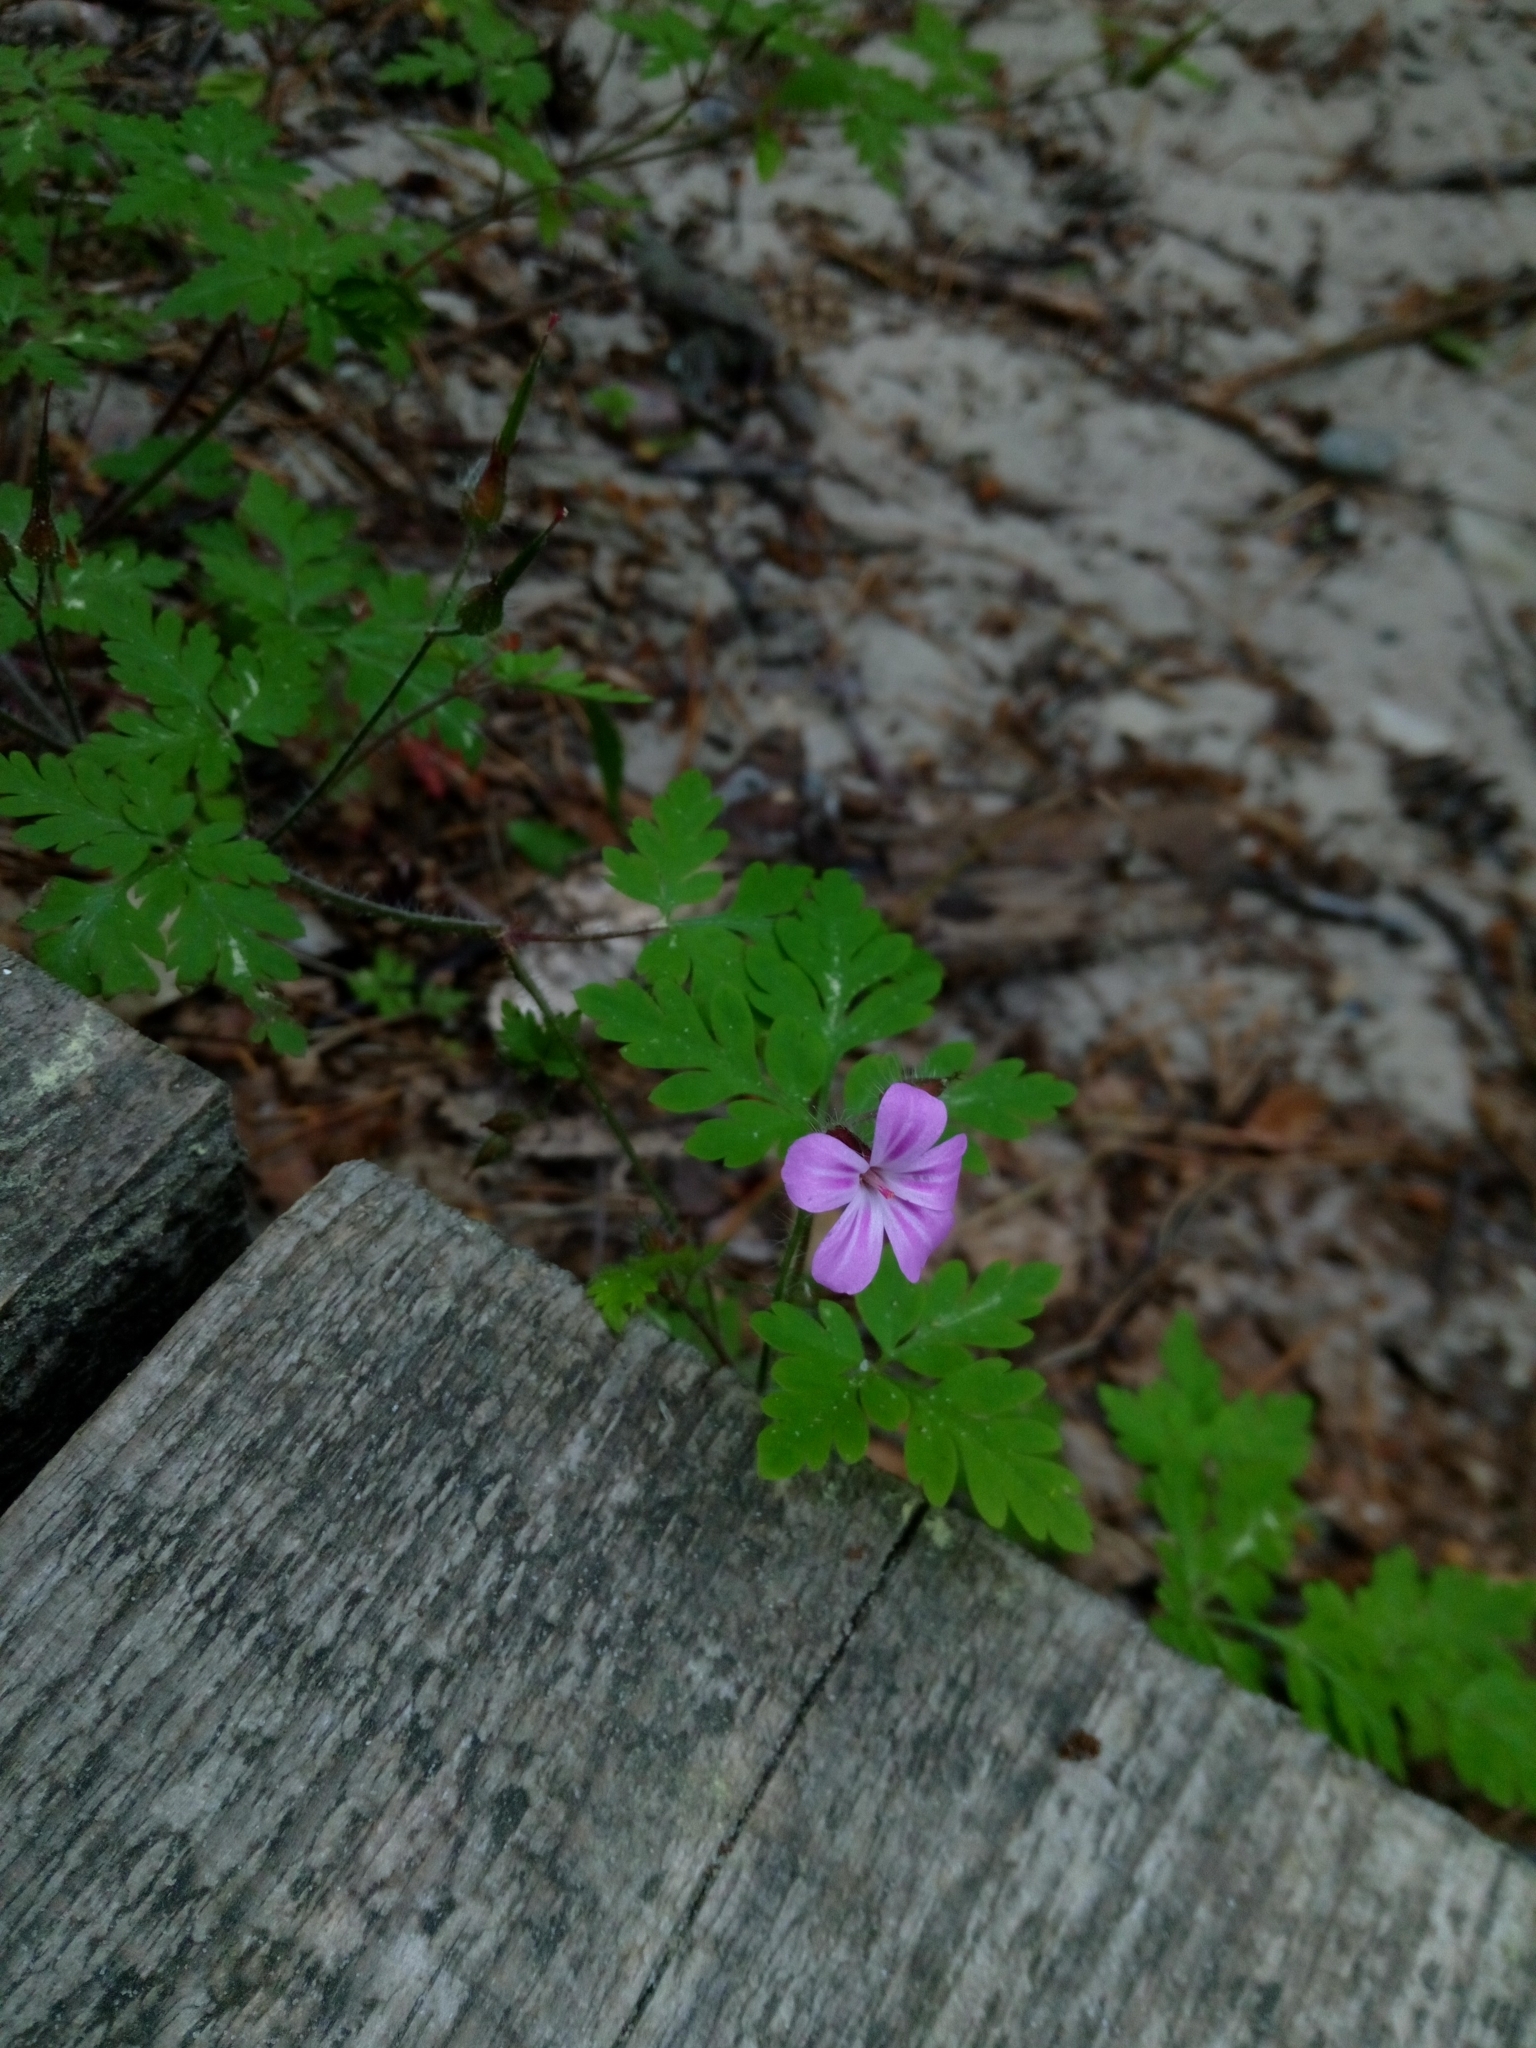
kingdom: Plantae
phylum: Tracheophyta
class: Magnoliopsida
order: Geraniales
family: Geraniaceae
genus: Geranium
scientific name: Geranium robertianum
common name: Herb-robert
